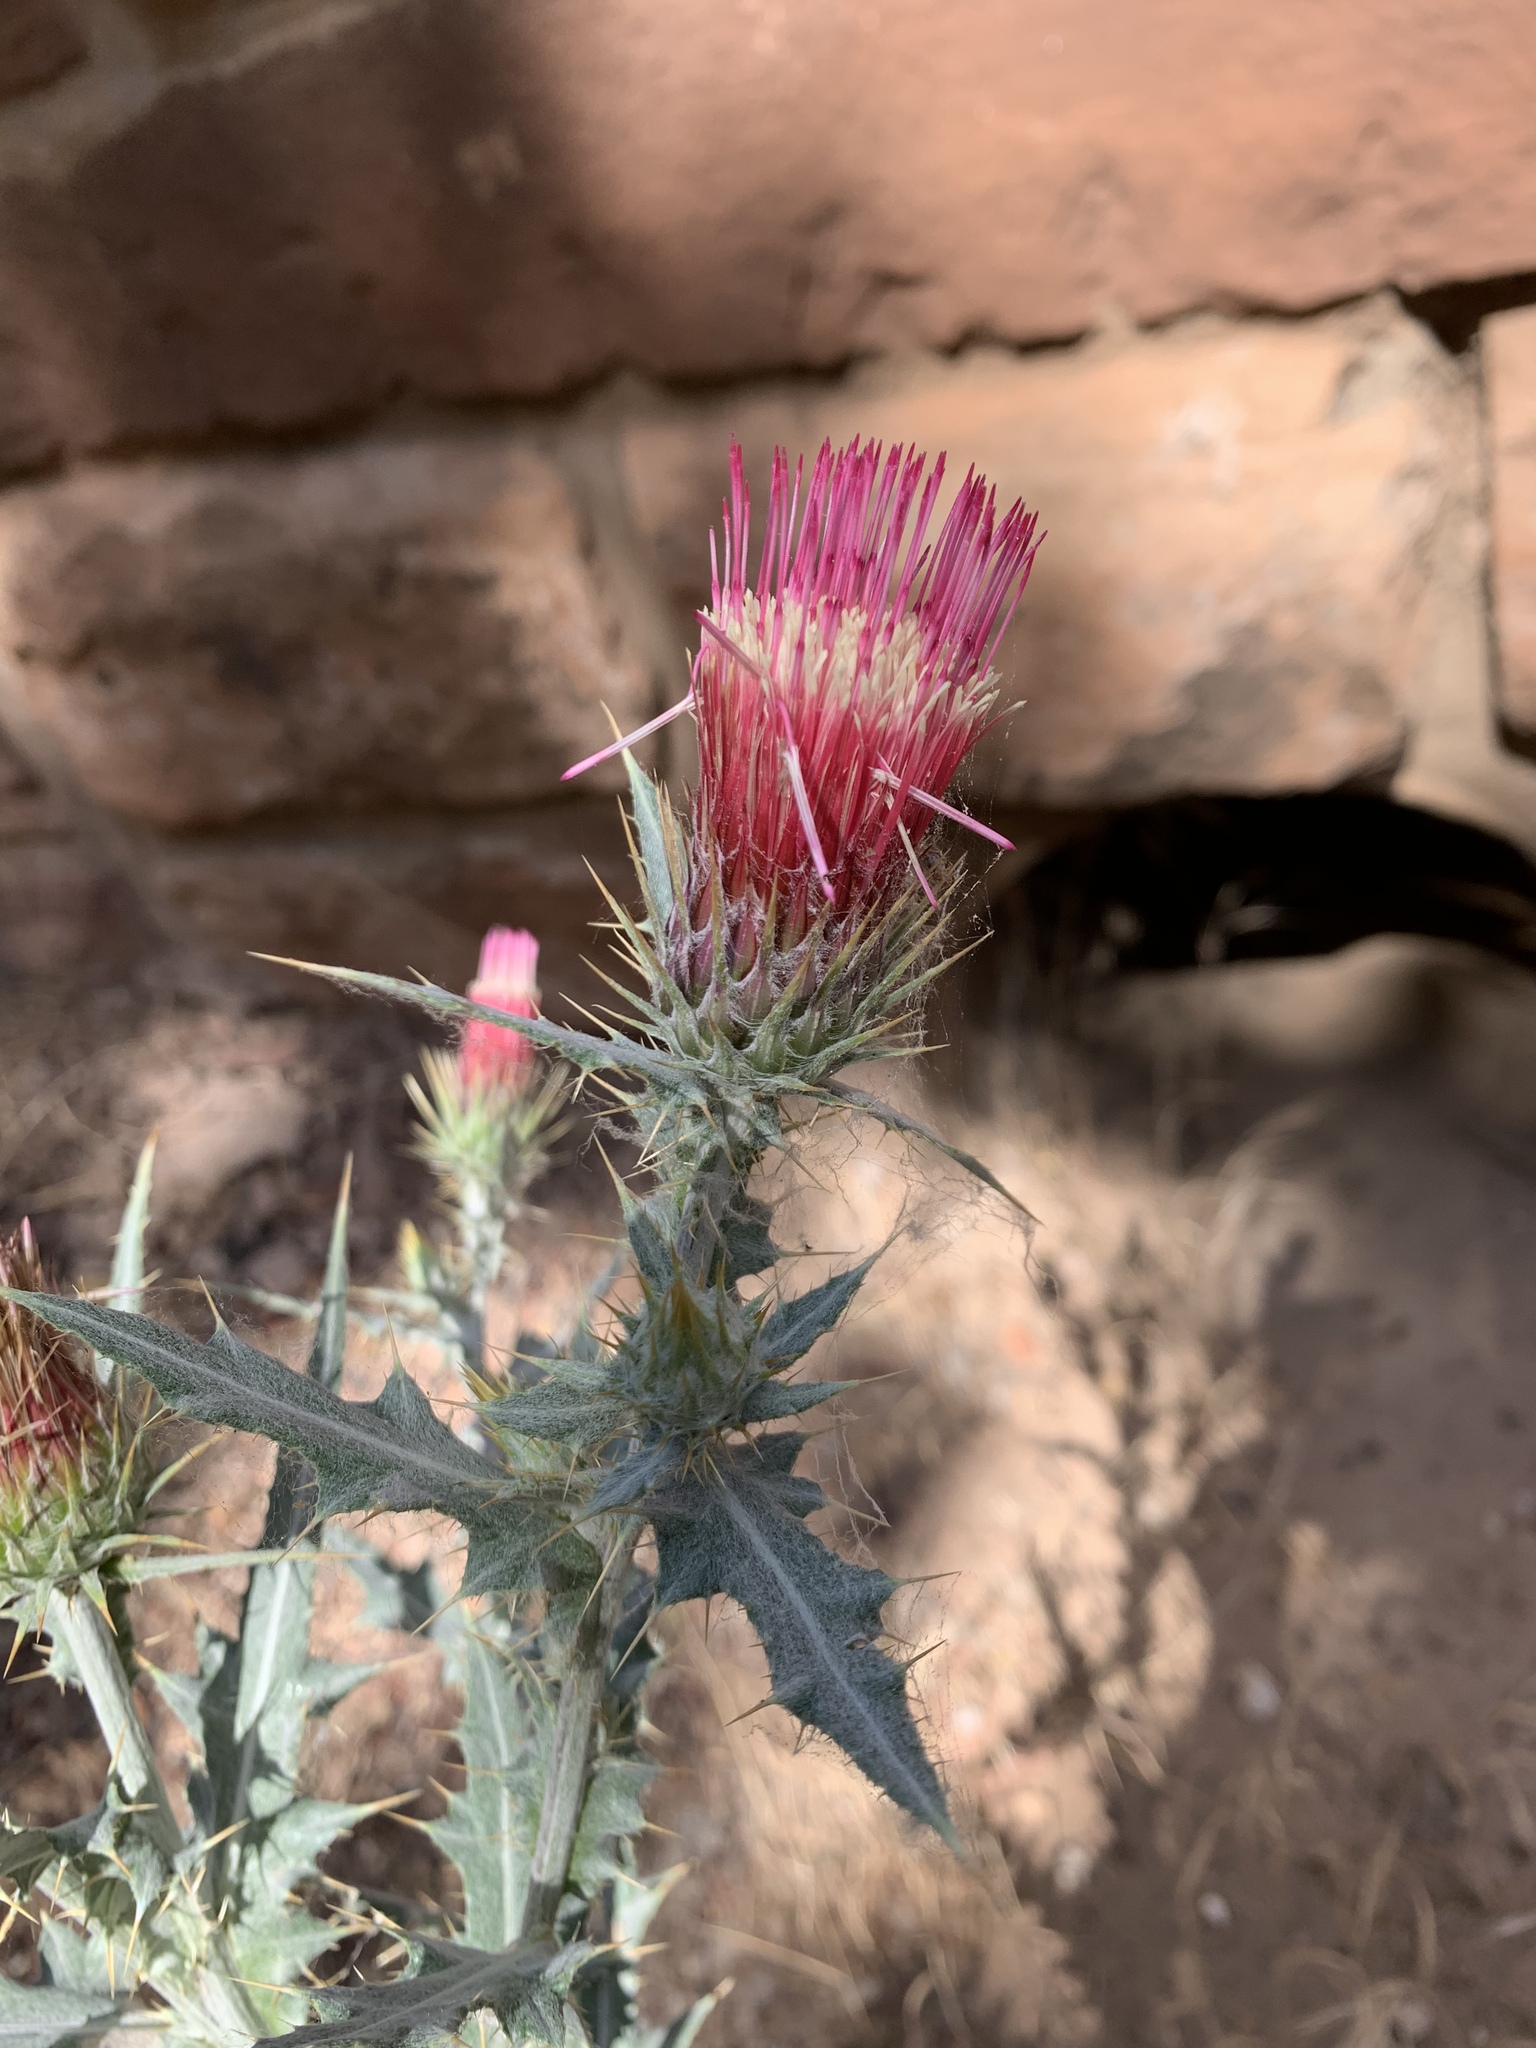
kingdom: Plantae
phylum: Tracheophyta
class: Magnoliopsida
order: Asterales
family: Asteraceae
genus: Cirsium
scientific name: Cirsium arizonicum
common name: Arizona thistle
